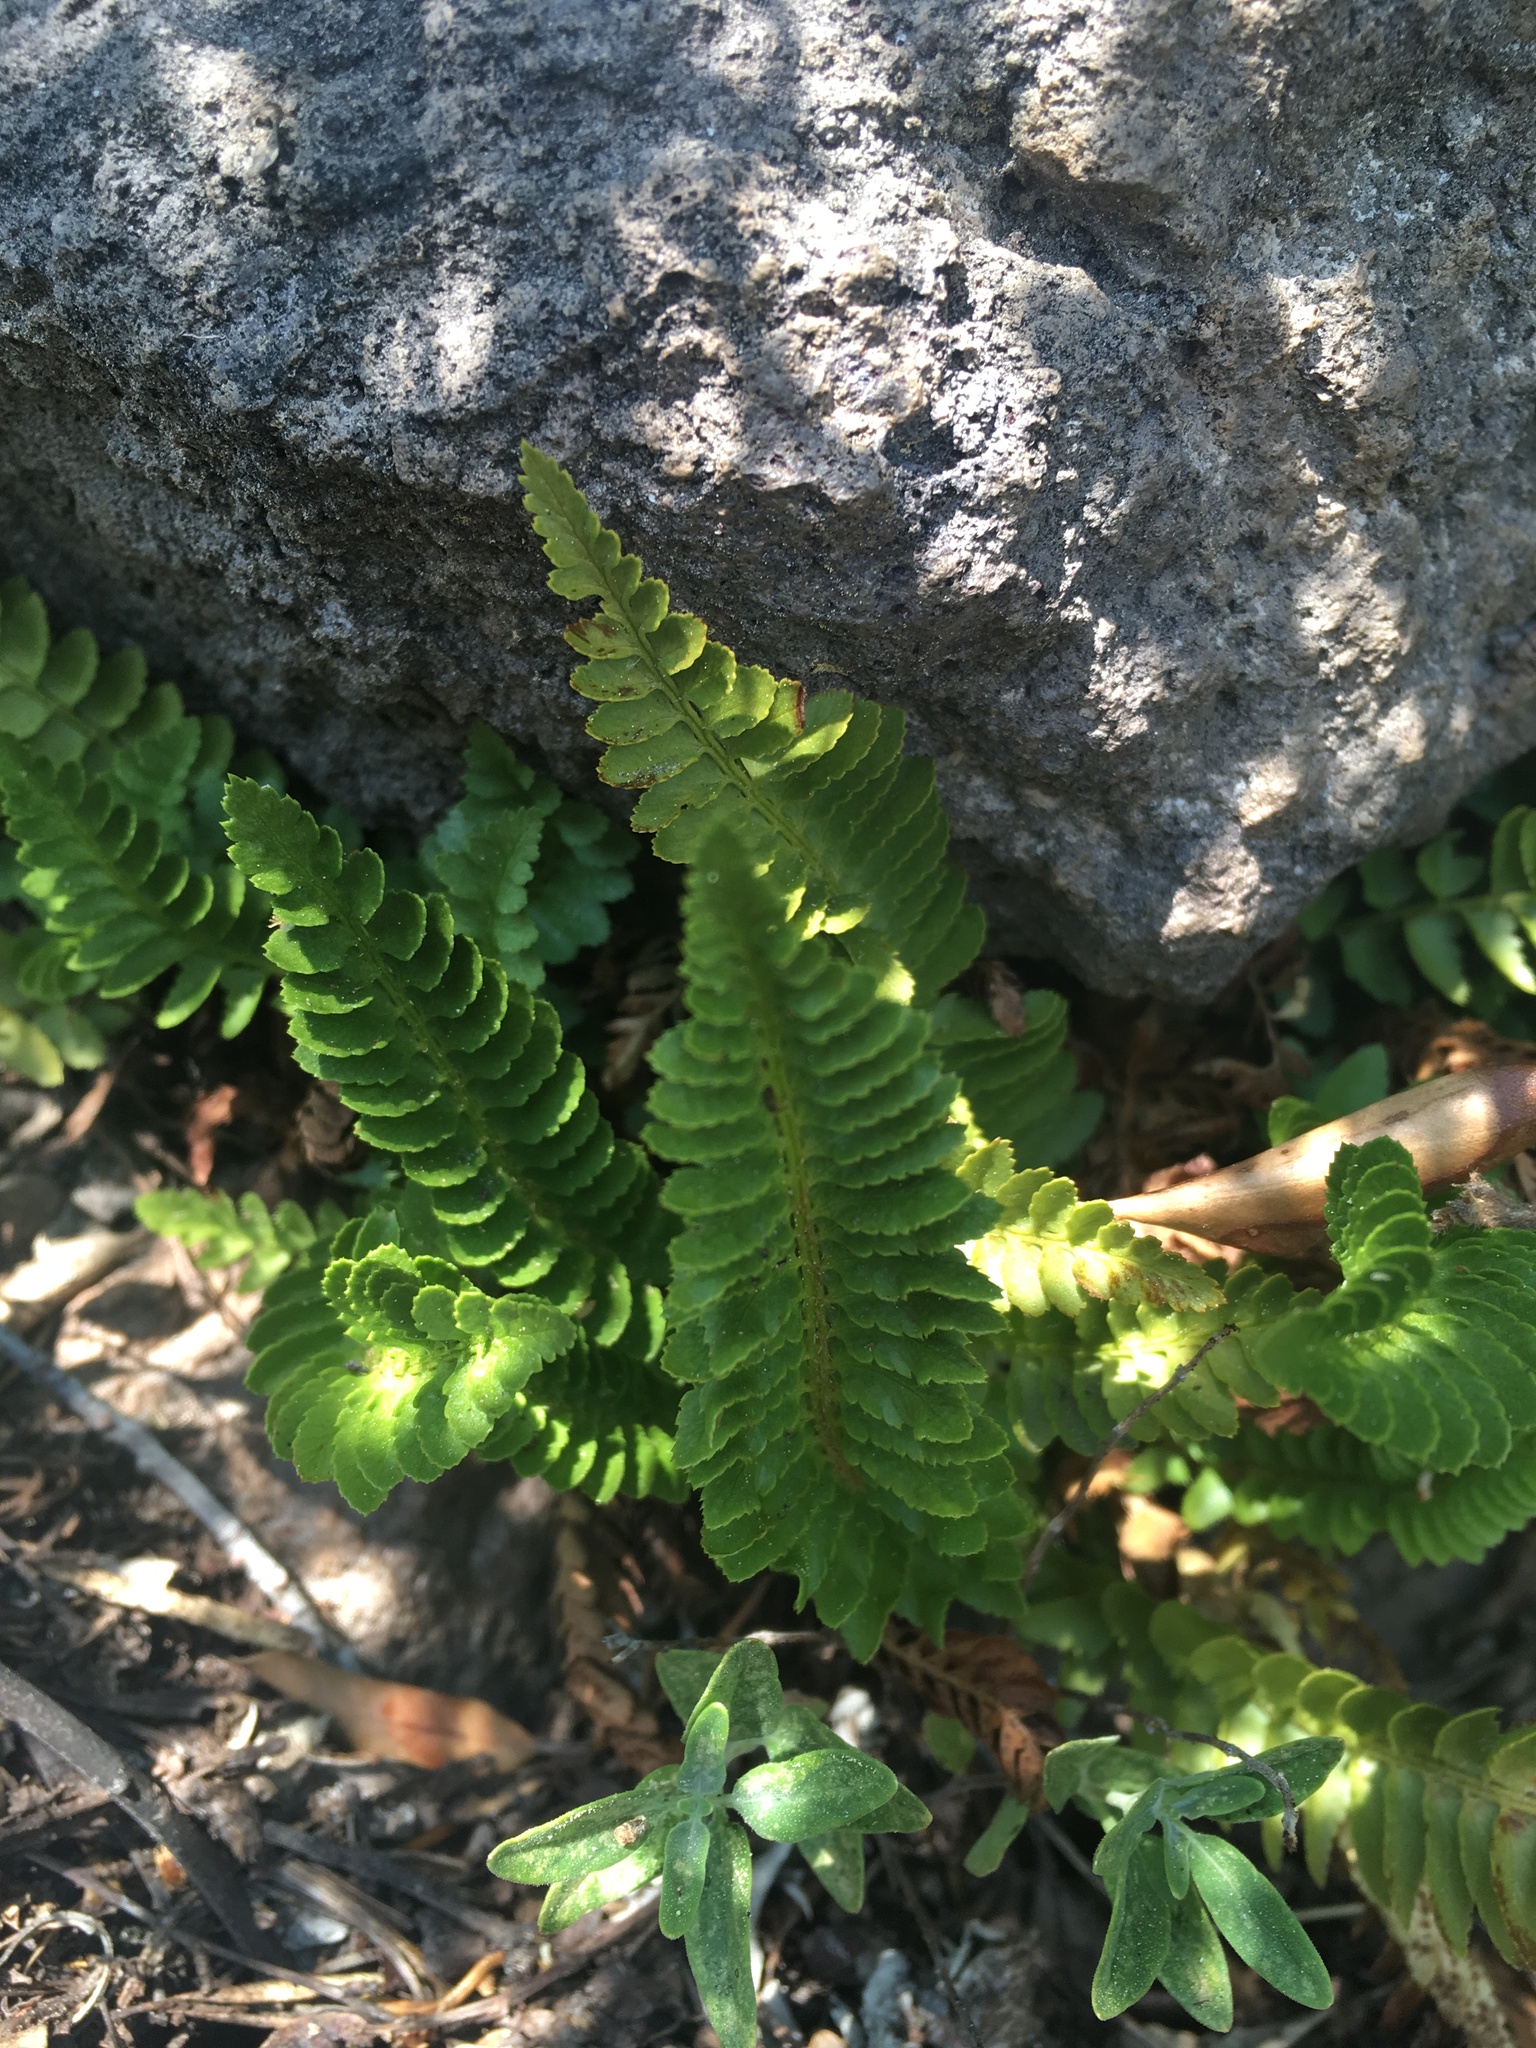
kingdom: Plantae
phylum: Tracheophyta
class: Polypodiopsida
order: Polypodiales
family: Dryopteridaceae
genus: Polystichum
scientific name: Polystichum scopulinum
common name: Eaton's shield fern
